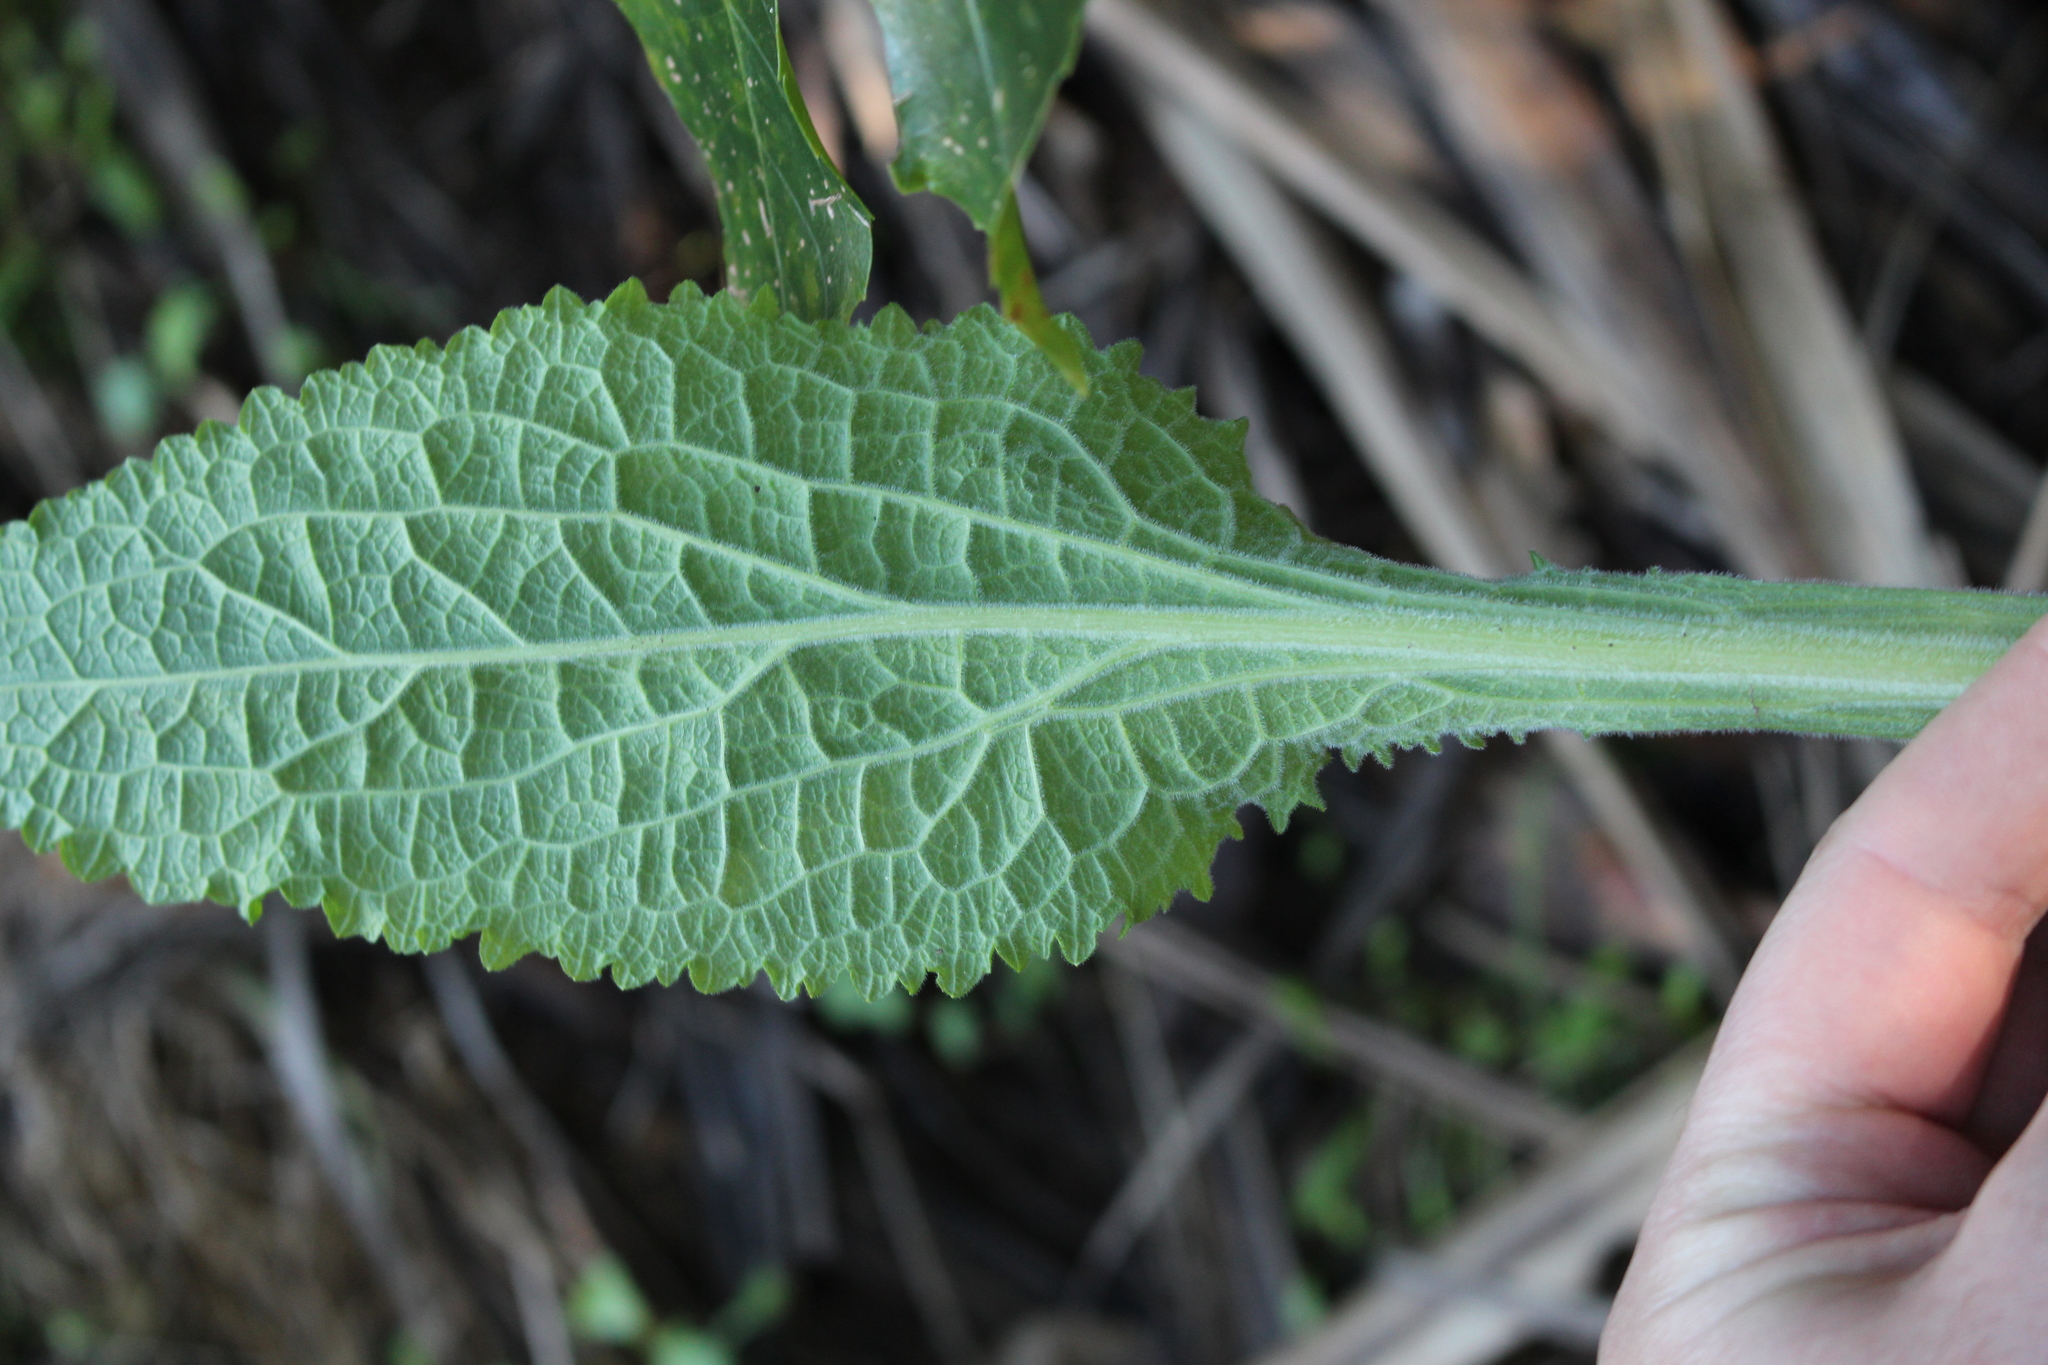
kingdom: Plantae
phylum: Tracheophyta
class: Magnoliopsida
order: Lamiales
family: Plantaginaceae
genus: Digitalis
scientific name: Digitalis purpurea
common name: Foxglove
